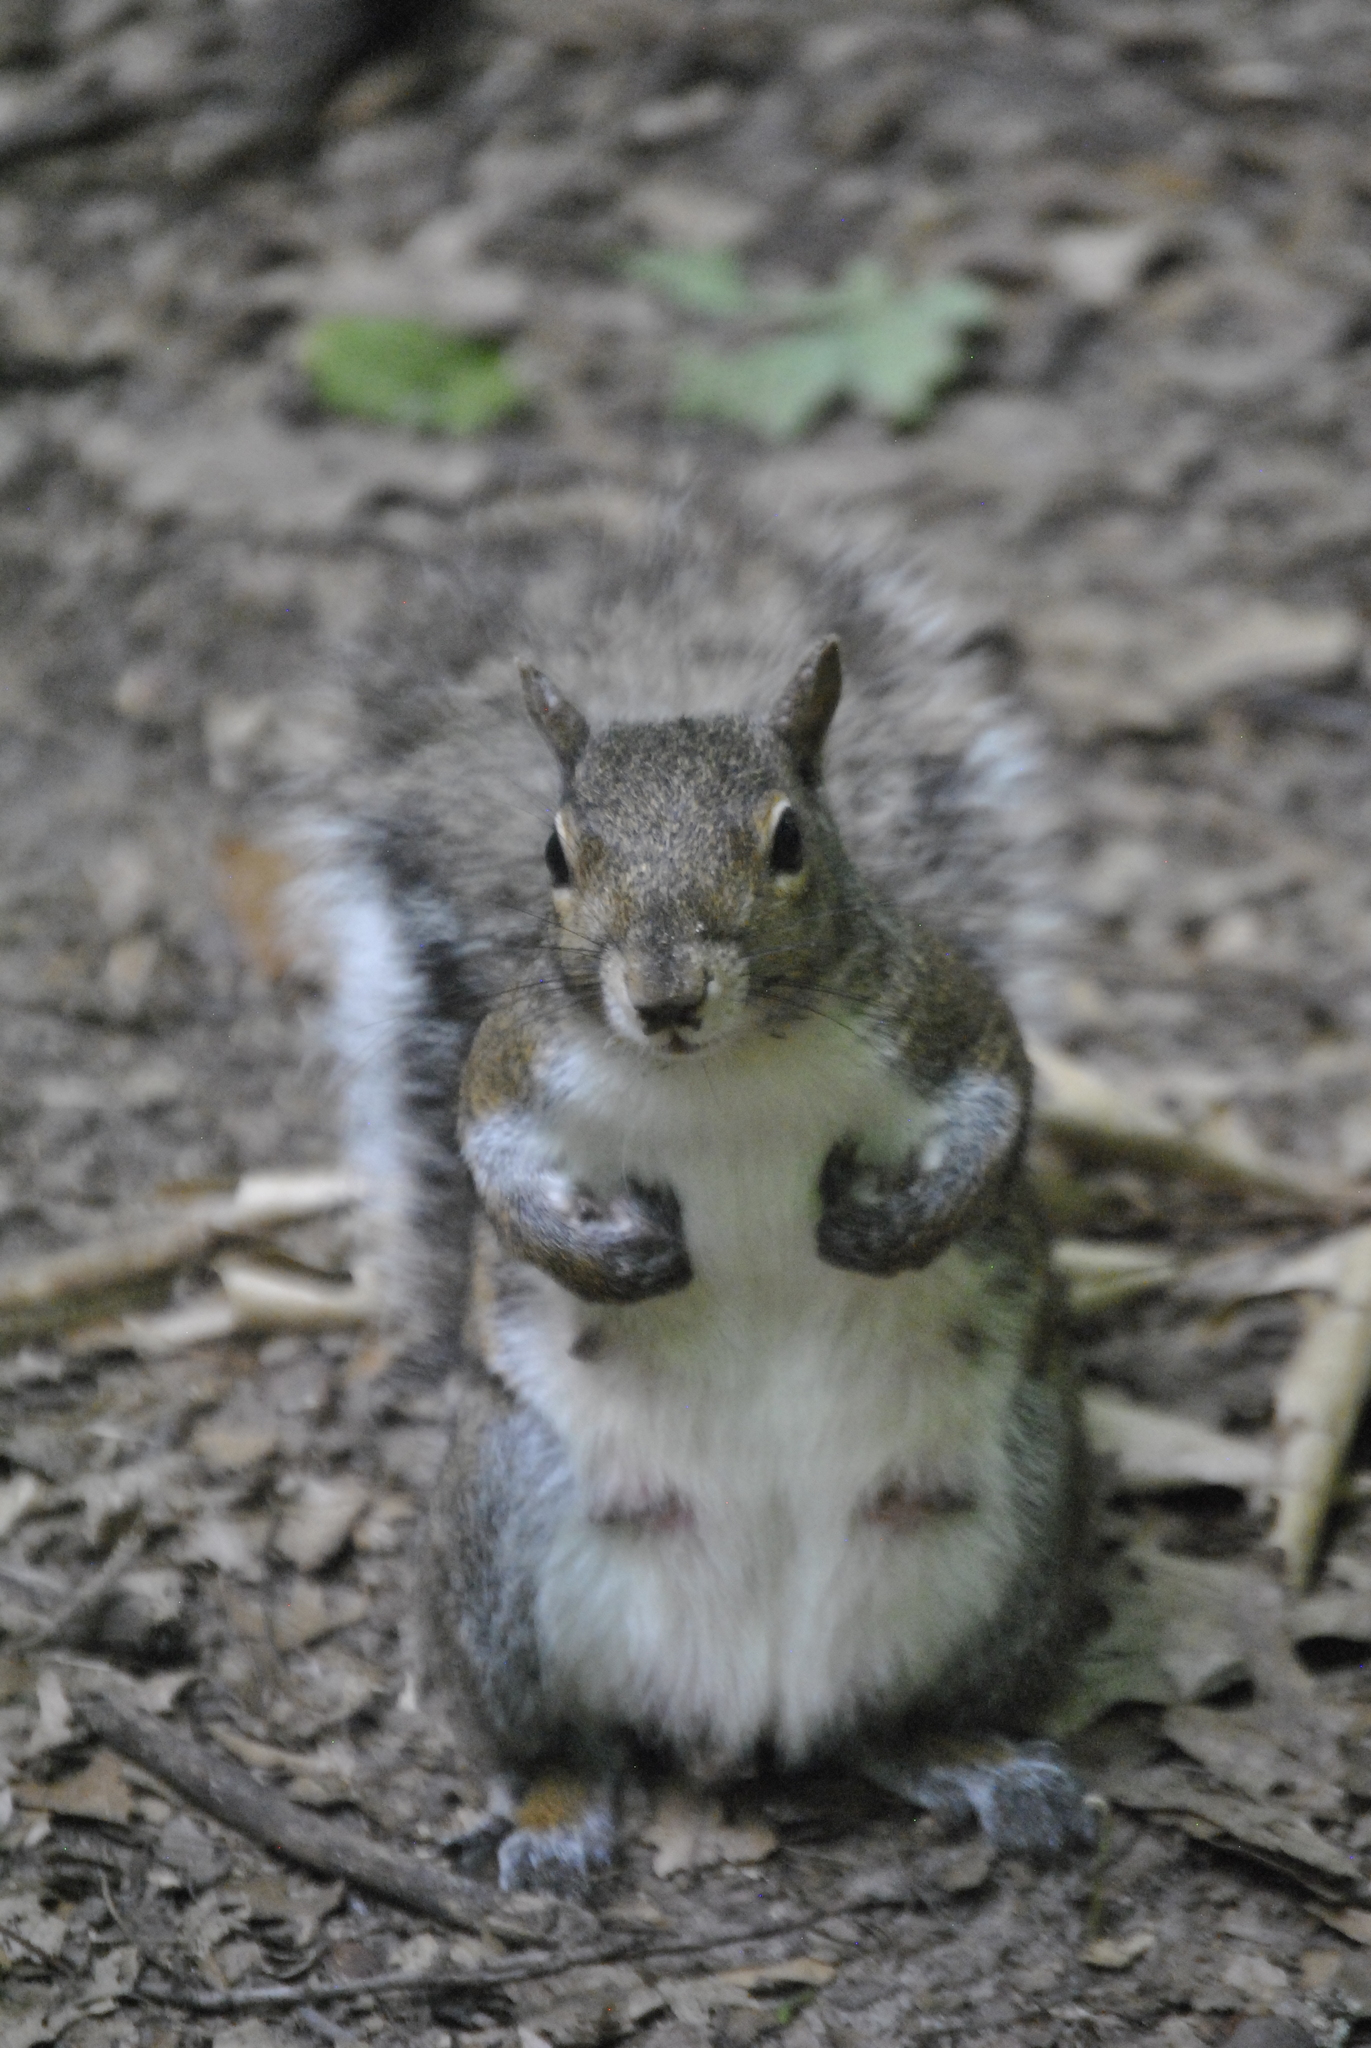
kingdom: Animalia
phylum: Chordata
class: Mammalia
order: Rodentia
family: Sciuridae
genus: Sciurus
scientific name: Sciurus carolinensis
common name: Eastern gray squirrel
